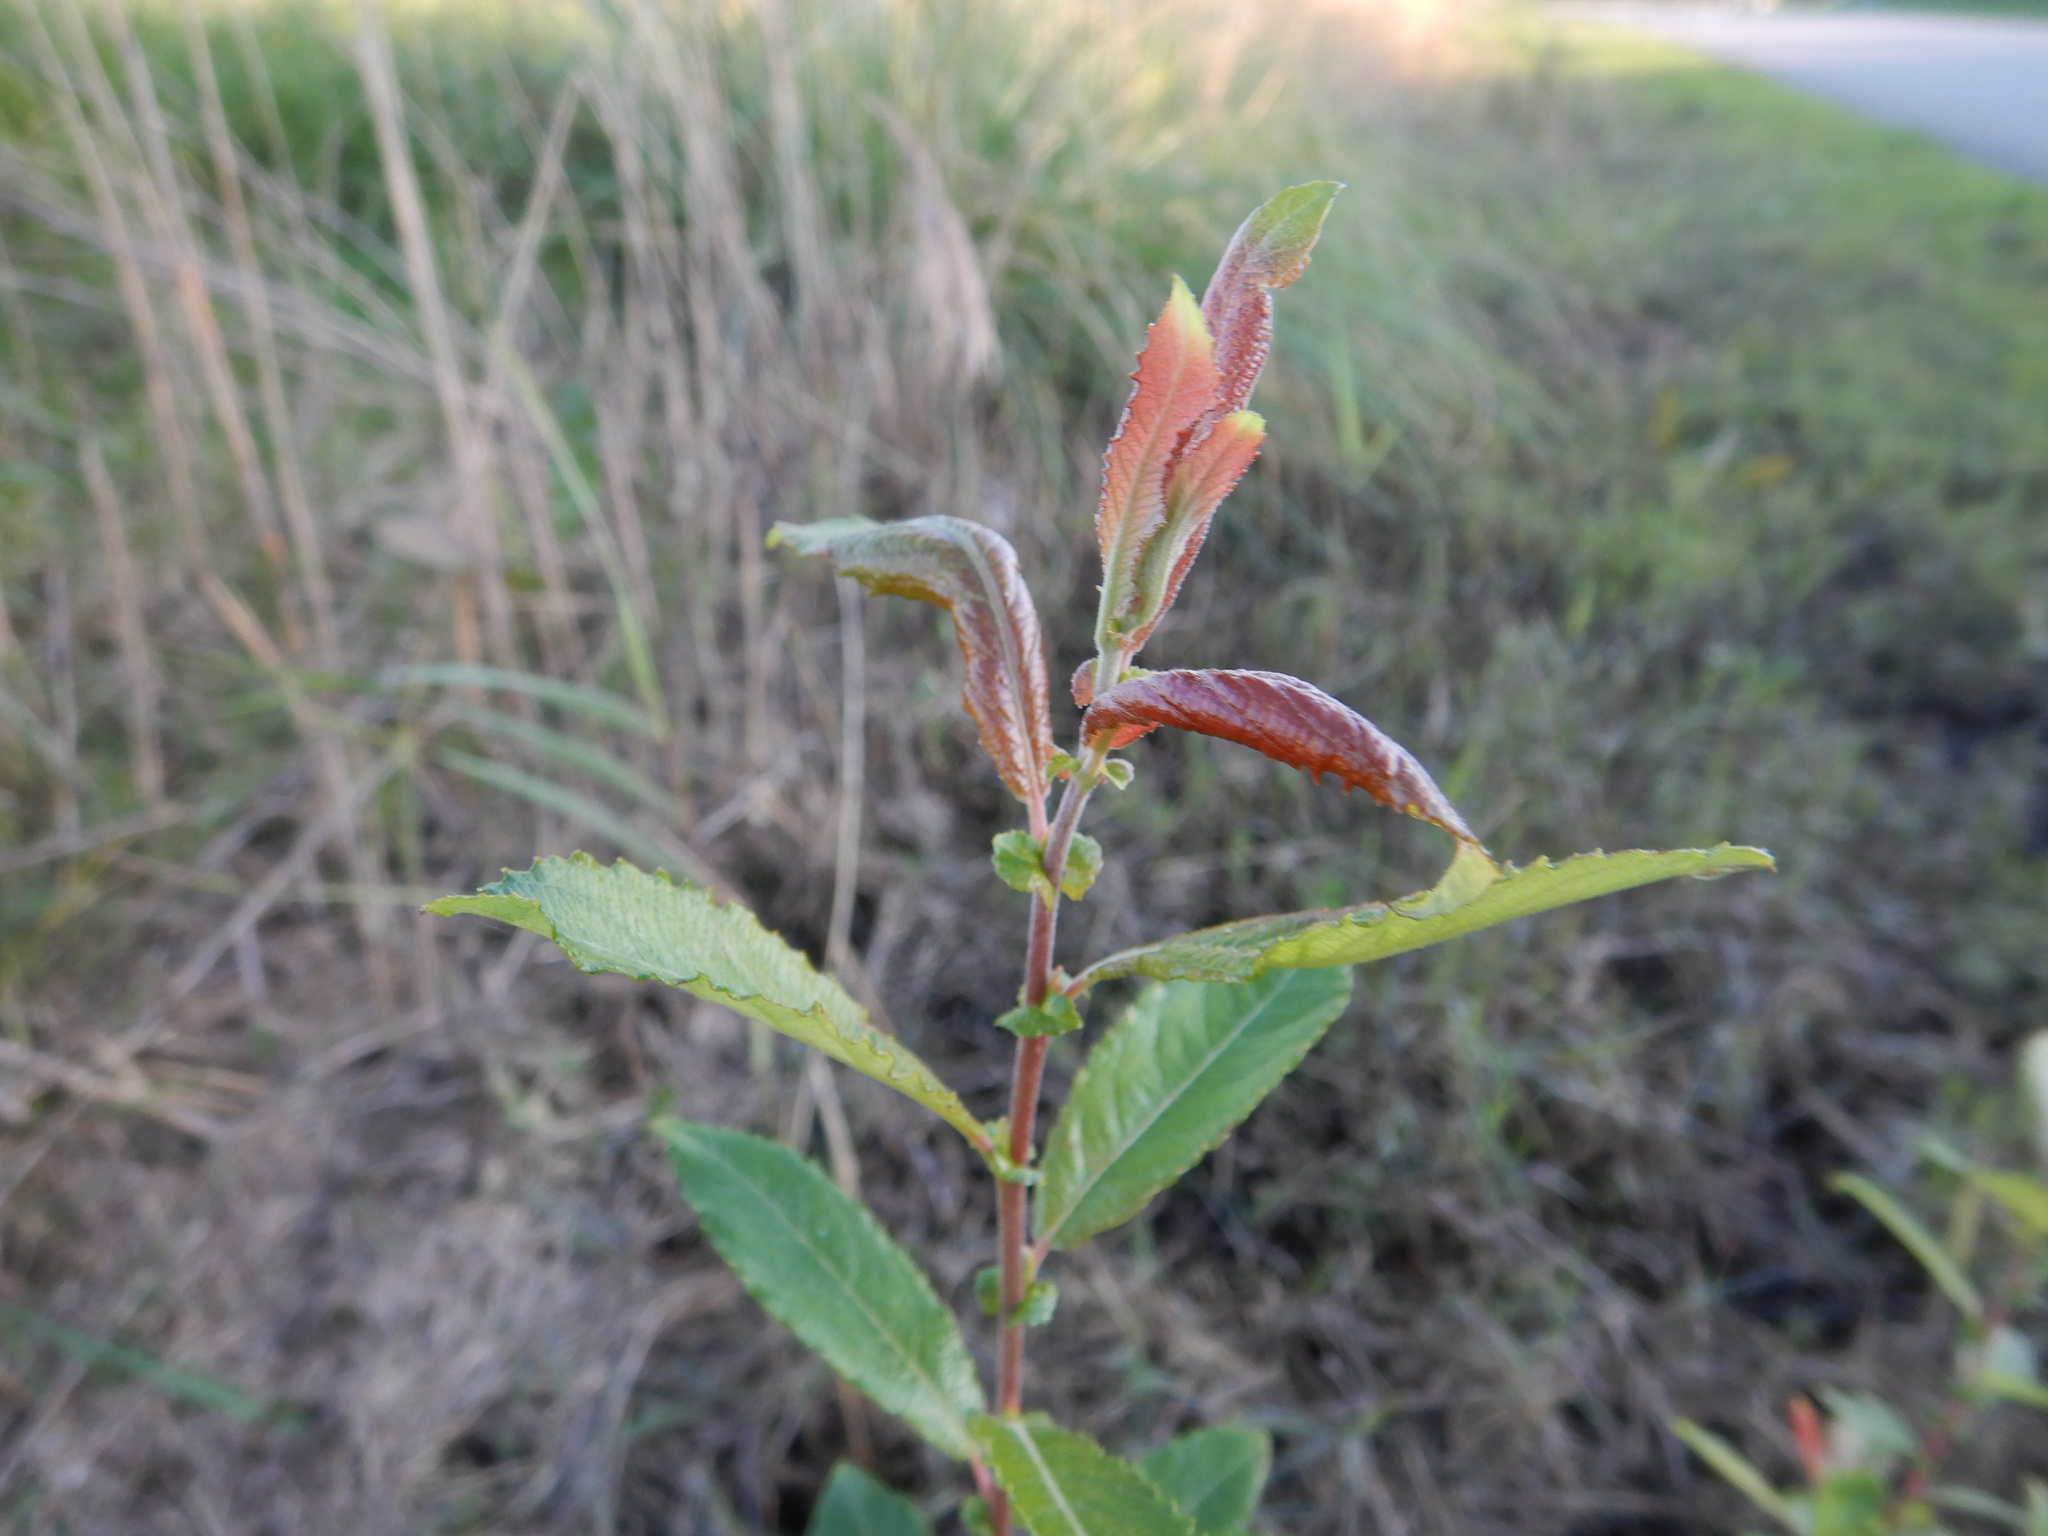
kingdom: Plantae
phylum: Tracheophyta
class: Magnoliopsida
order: Malpighiales
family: Salicaceae
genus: Salix
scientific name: Salix atrocinerea
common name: Rusty willow
